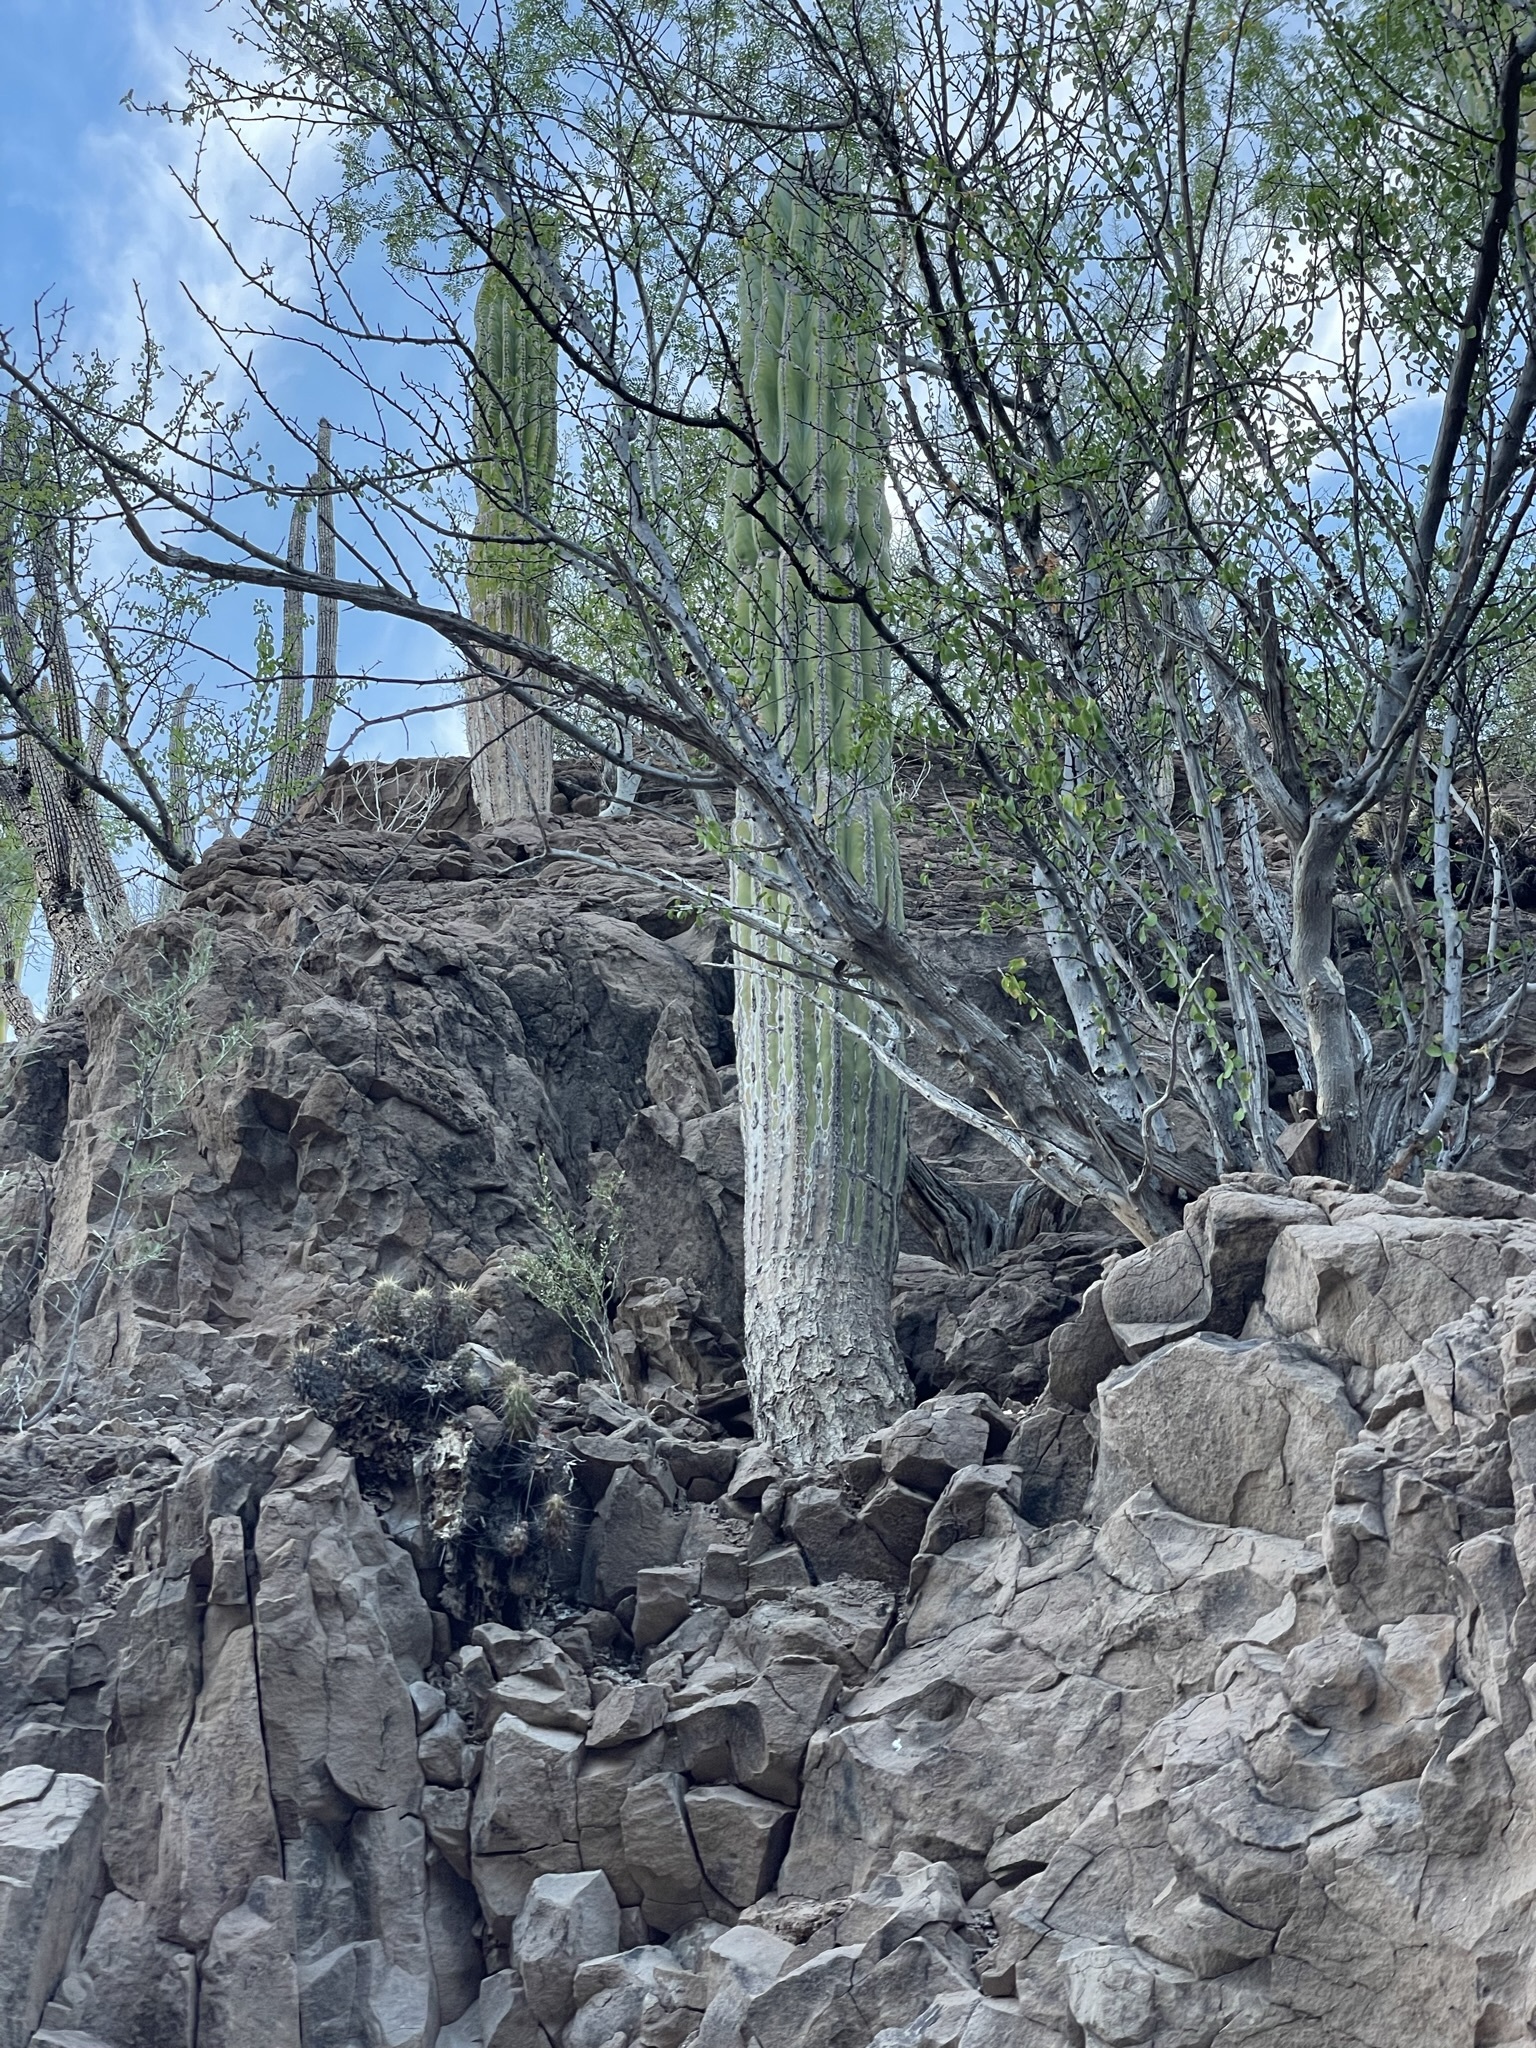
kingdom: Plantae
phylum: Tracheophyta
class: Magnoliopsida
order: Caryophyllales
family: Cactaceae
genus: Pachycereus
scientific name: Pachycereus pringlei
